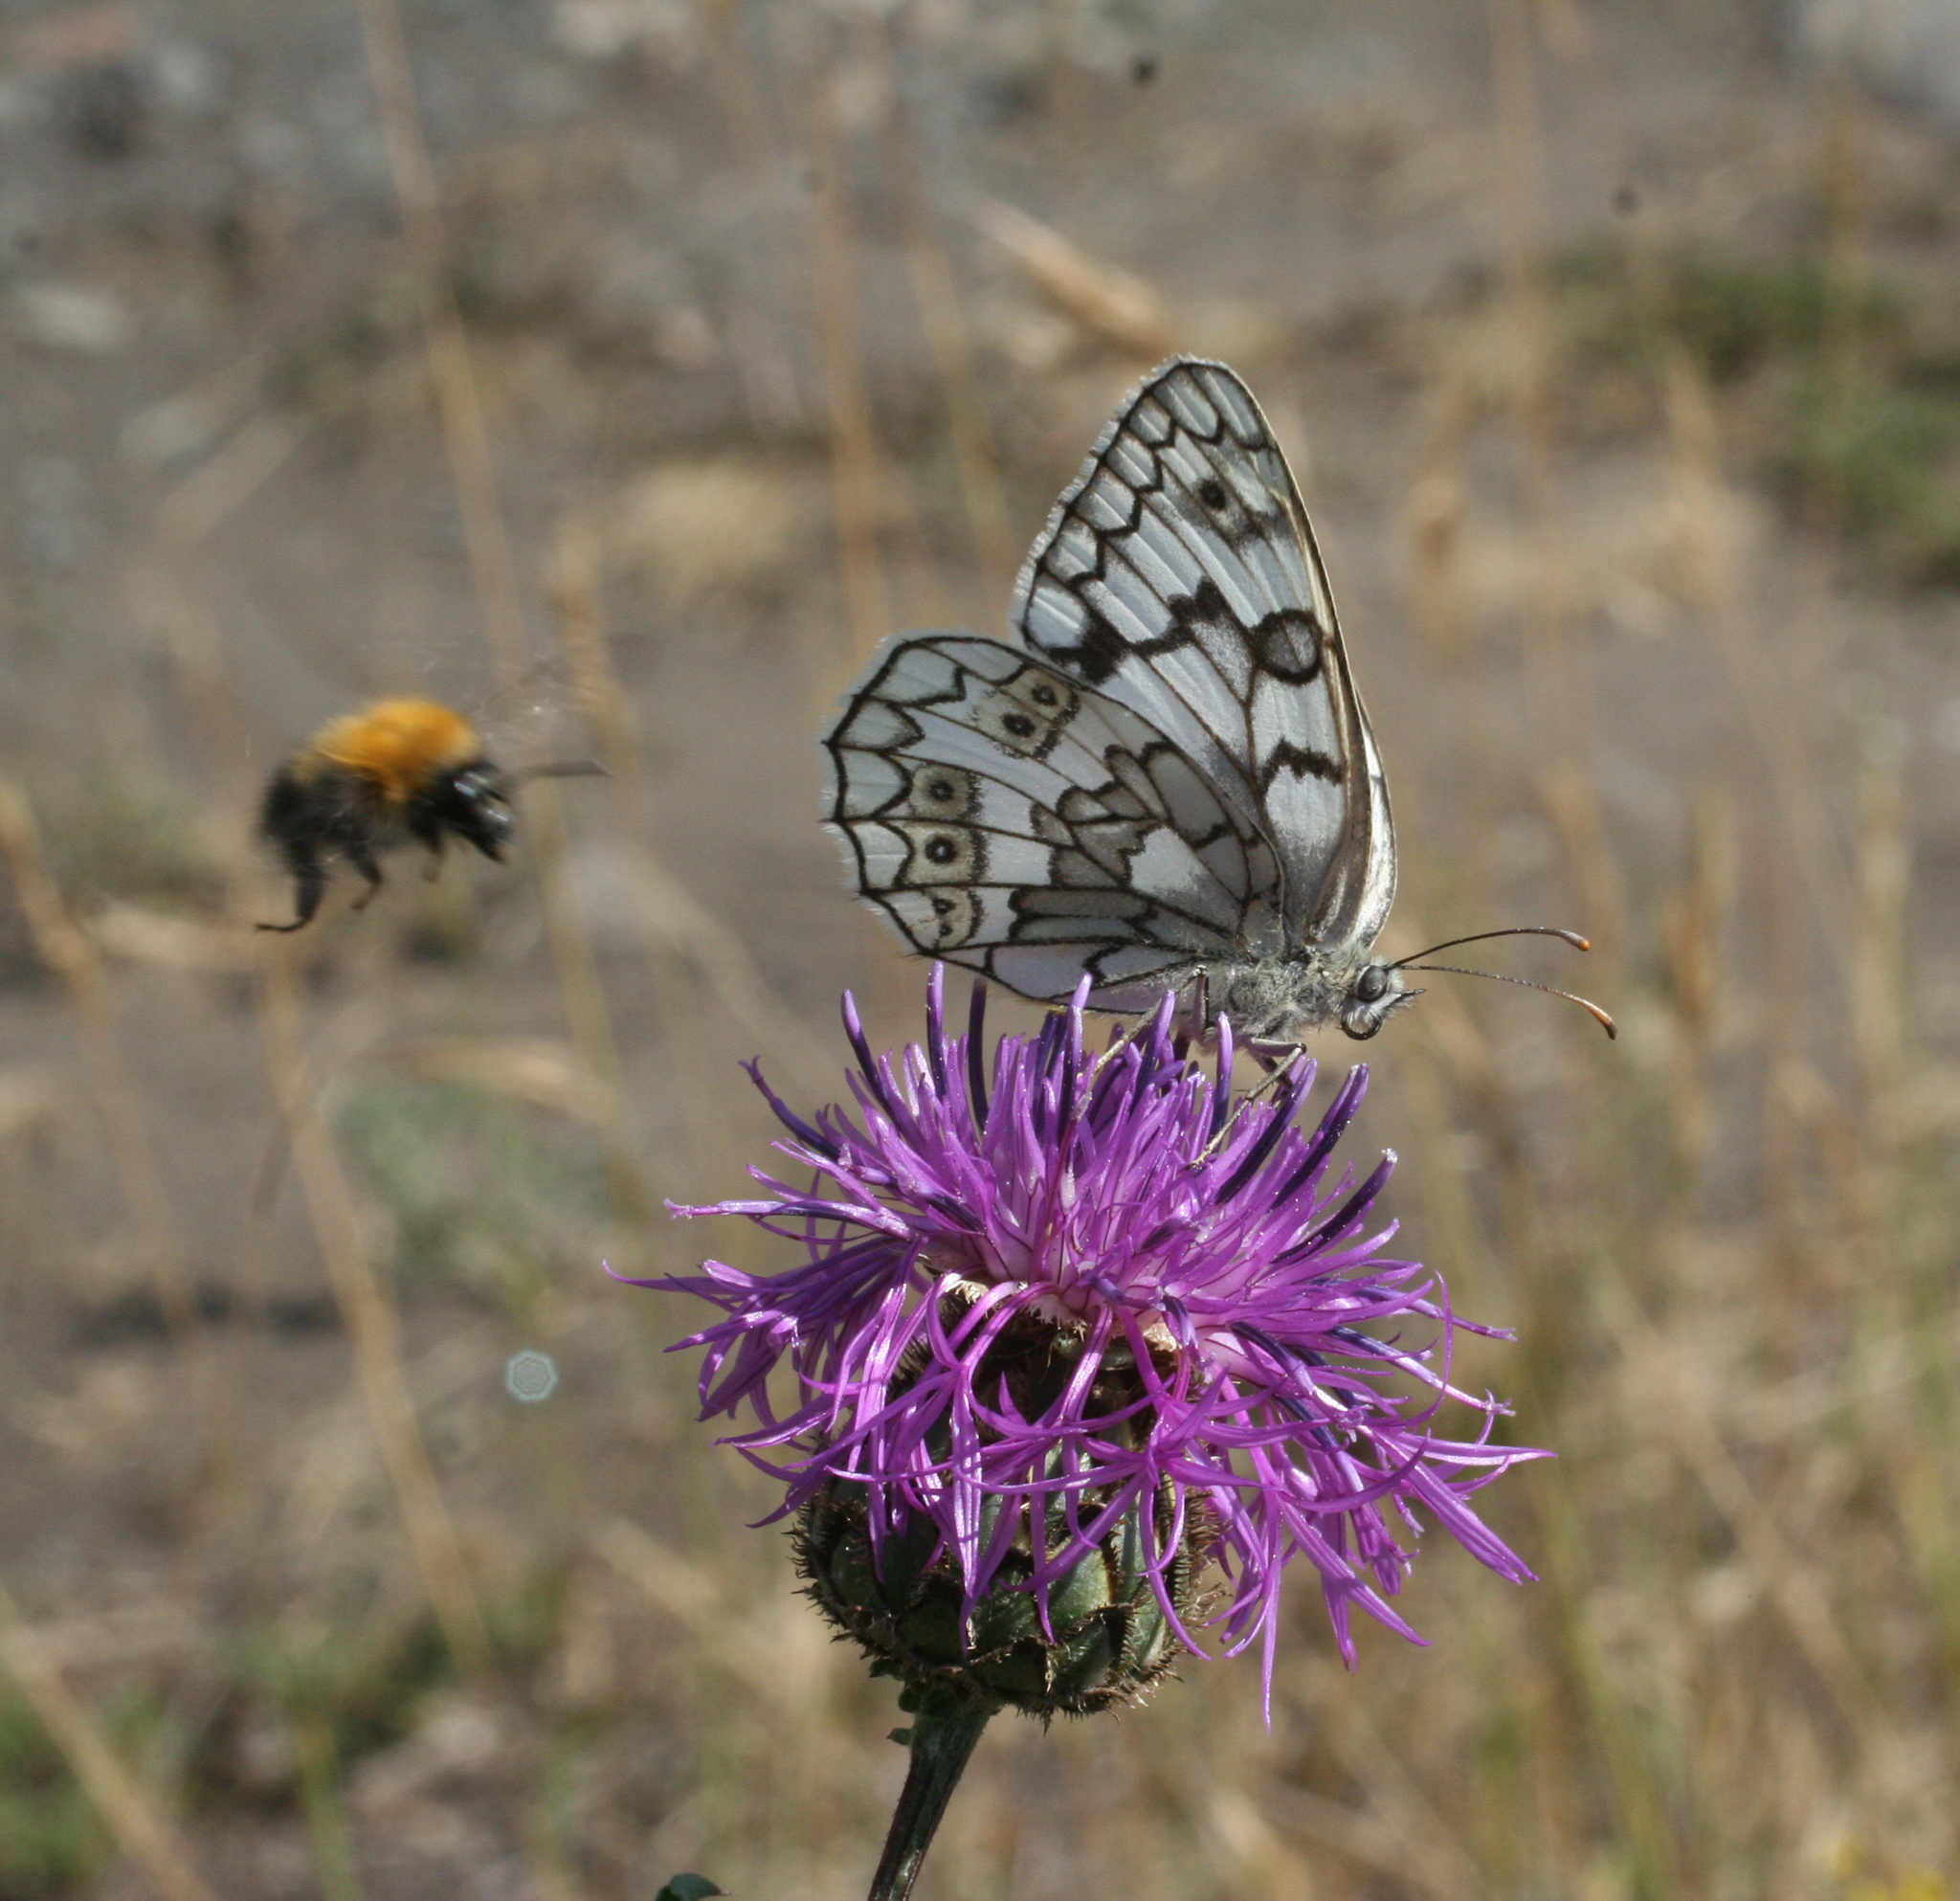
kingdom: Animalia
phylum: Arthropoda
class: Insecta
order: Lepidoptera
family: Nymphalidae
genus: Melanargia
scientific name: Melanargia japygia
